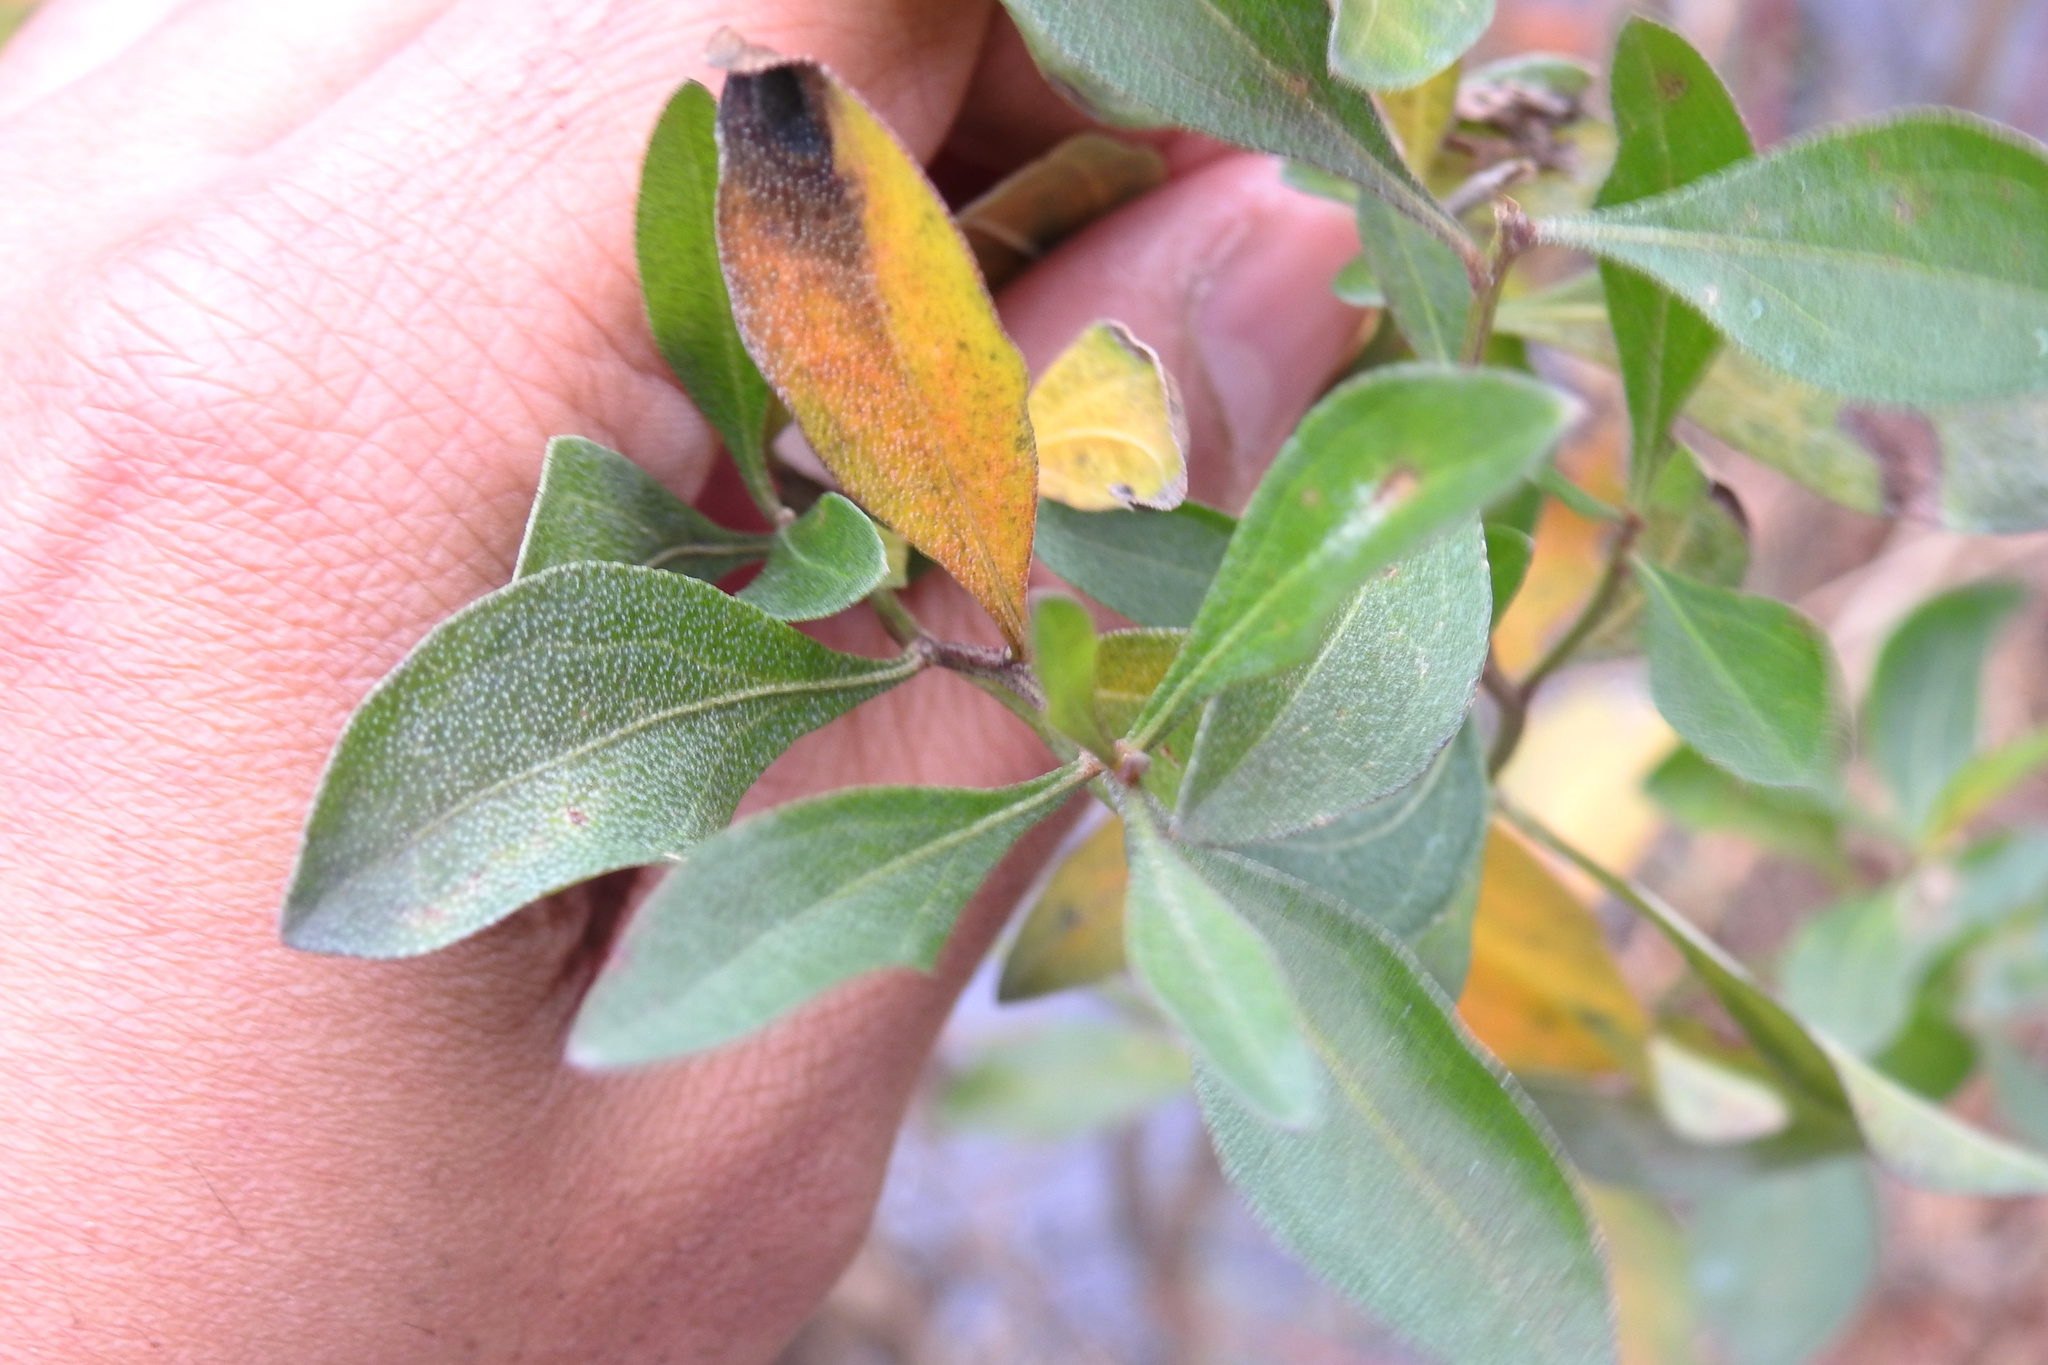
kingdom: Plantae
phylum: Tracheophyta
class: Magnoliopsida
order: Asterales
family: Asteraceae
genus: Baccharis
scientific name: Baccharis halimifolia
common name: Eastern baccharis
